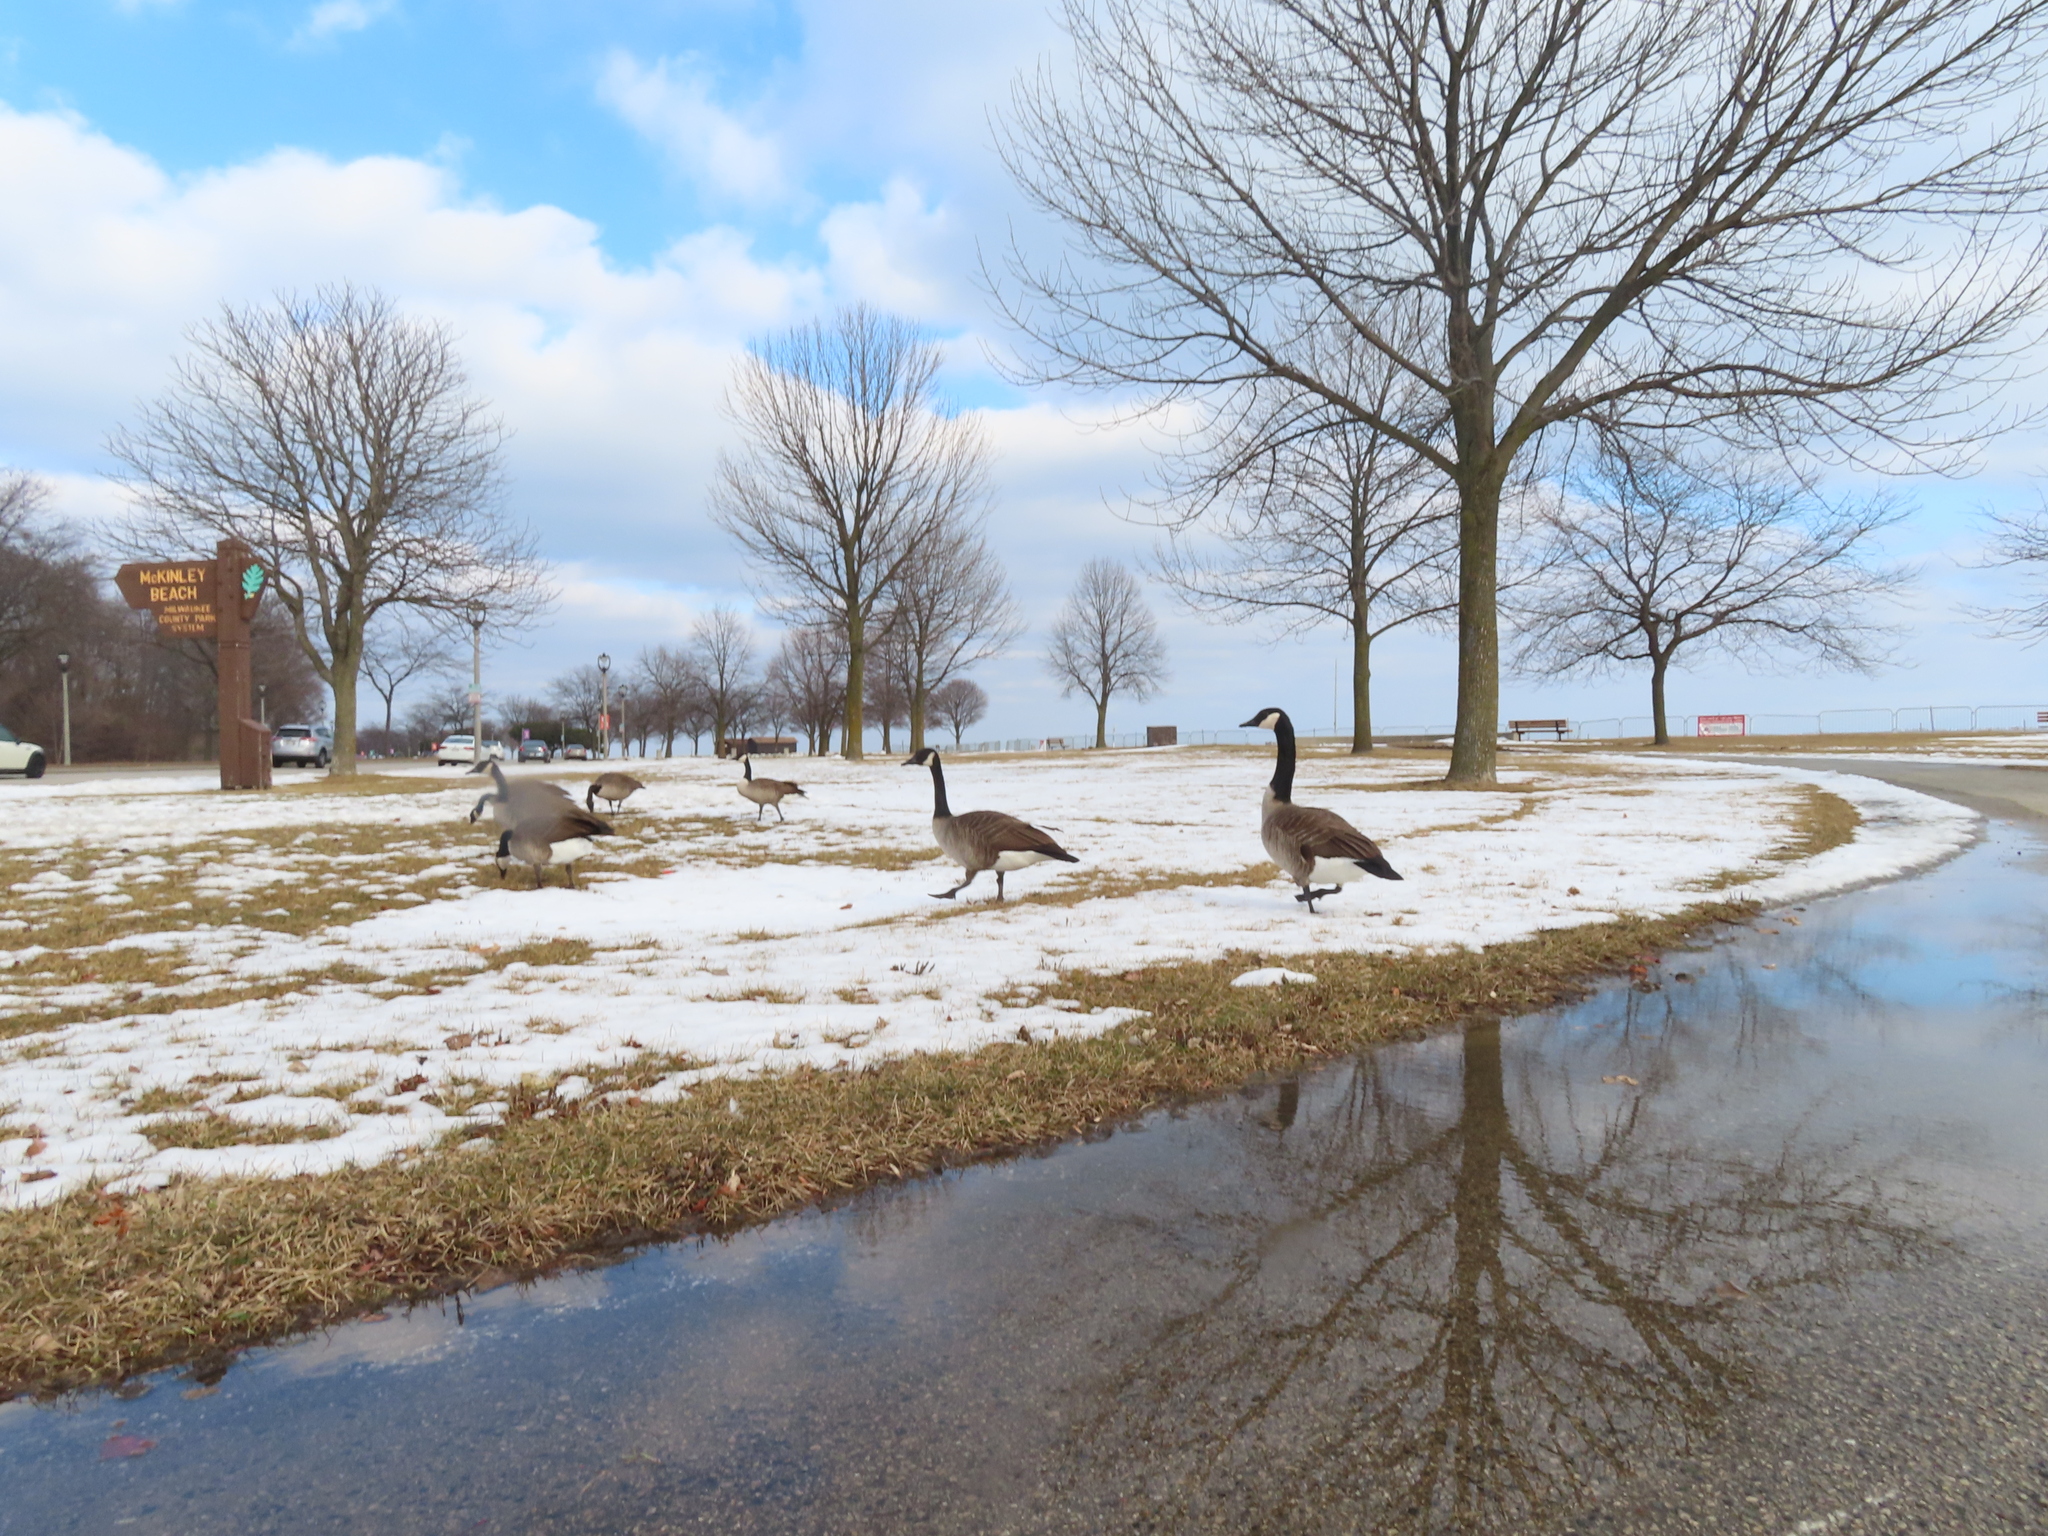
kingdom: Animalia
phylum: Chordata
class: Aves
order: Anseriformes
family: Anatidae
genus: Branta
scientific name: Branta canadensis
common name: Canada goose
